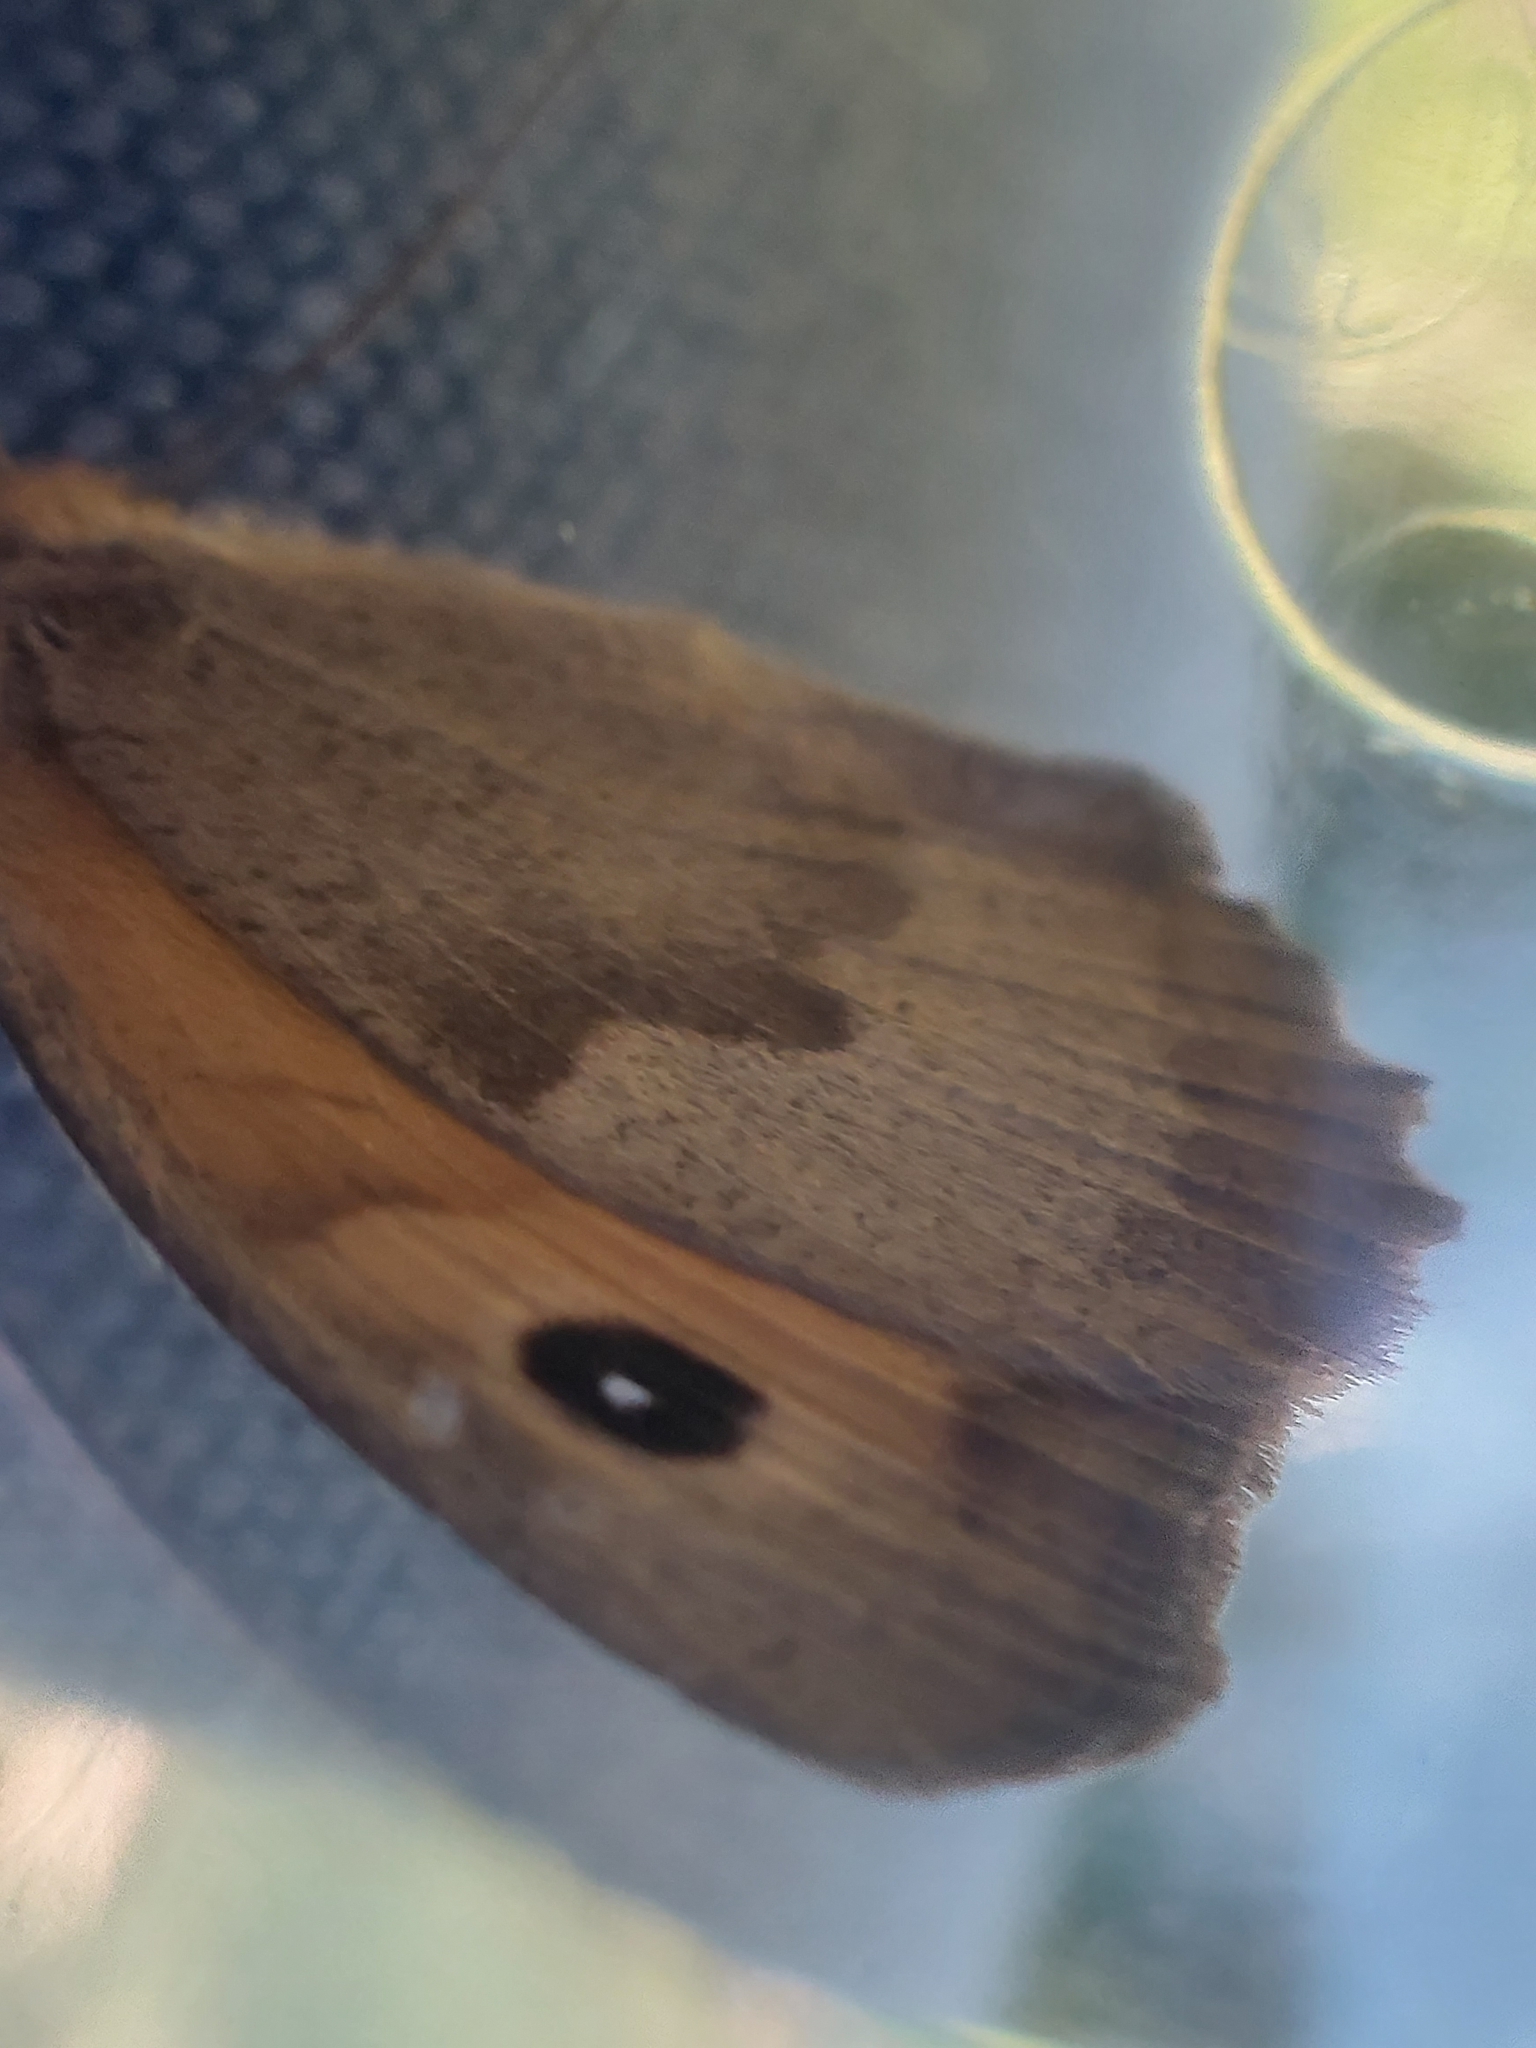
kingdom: Animalia
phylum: Arthropoda
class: Insecta
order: Lepidoptera
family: Nymphalidae
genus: Maniola
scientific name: Maniola jurtina
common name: Meadow brown
